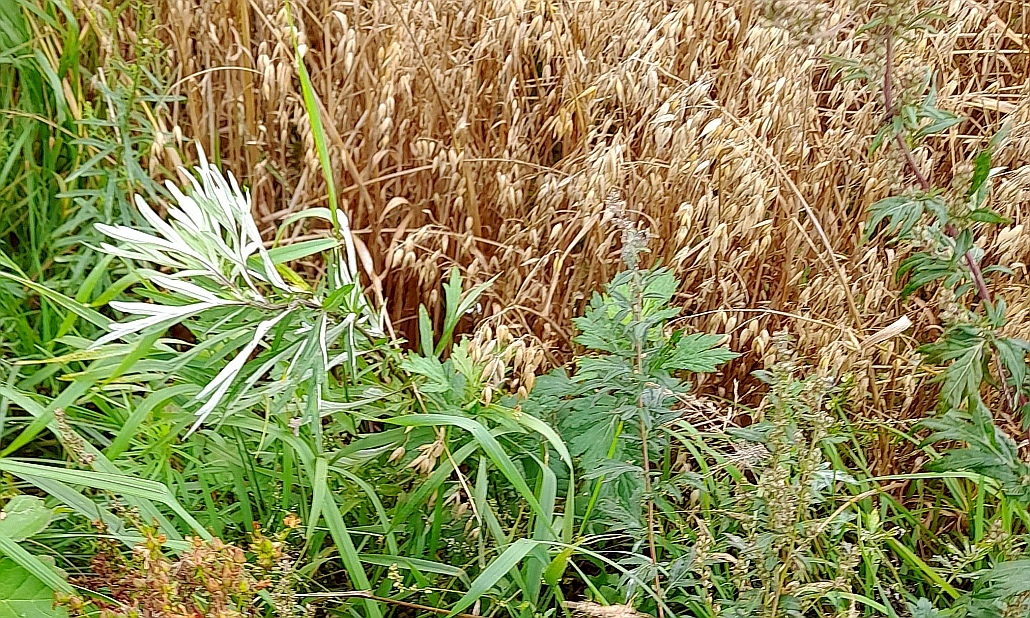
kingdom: Plantae
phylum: Tracheophyta
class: Magnoliopsida
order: Asterales
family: Asteraceae
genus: Artemisia
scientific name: Artemisia vulgaris
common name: Mugwort
